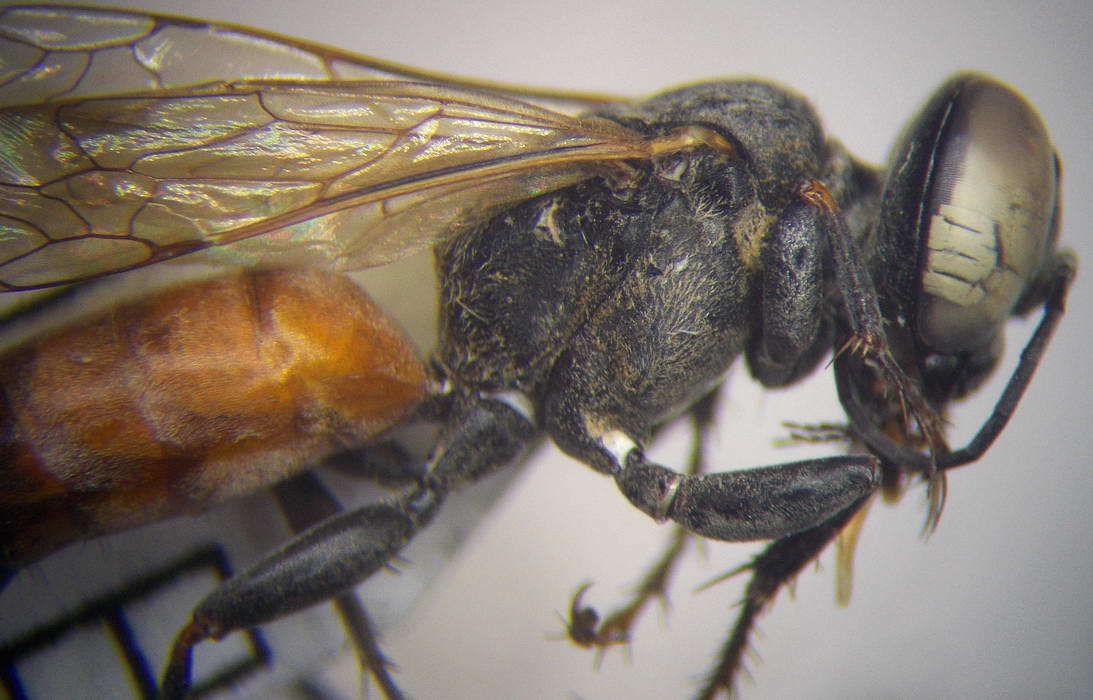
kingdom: Animalia
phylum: Arthropoda
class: Insecta
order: Hymenoptera
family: Crabronidae
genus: Tachysphex
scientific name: Tachysphex incertus
